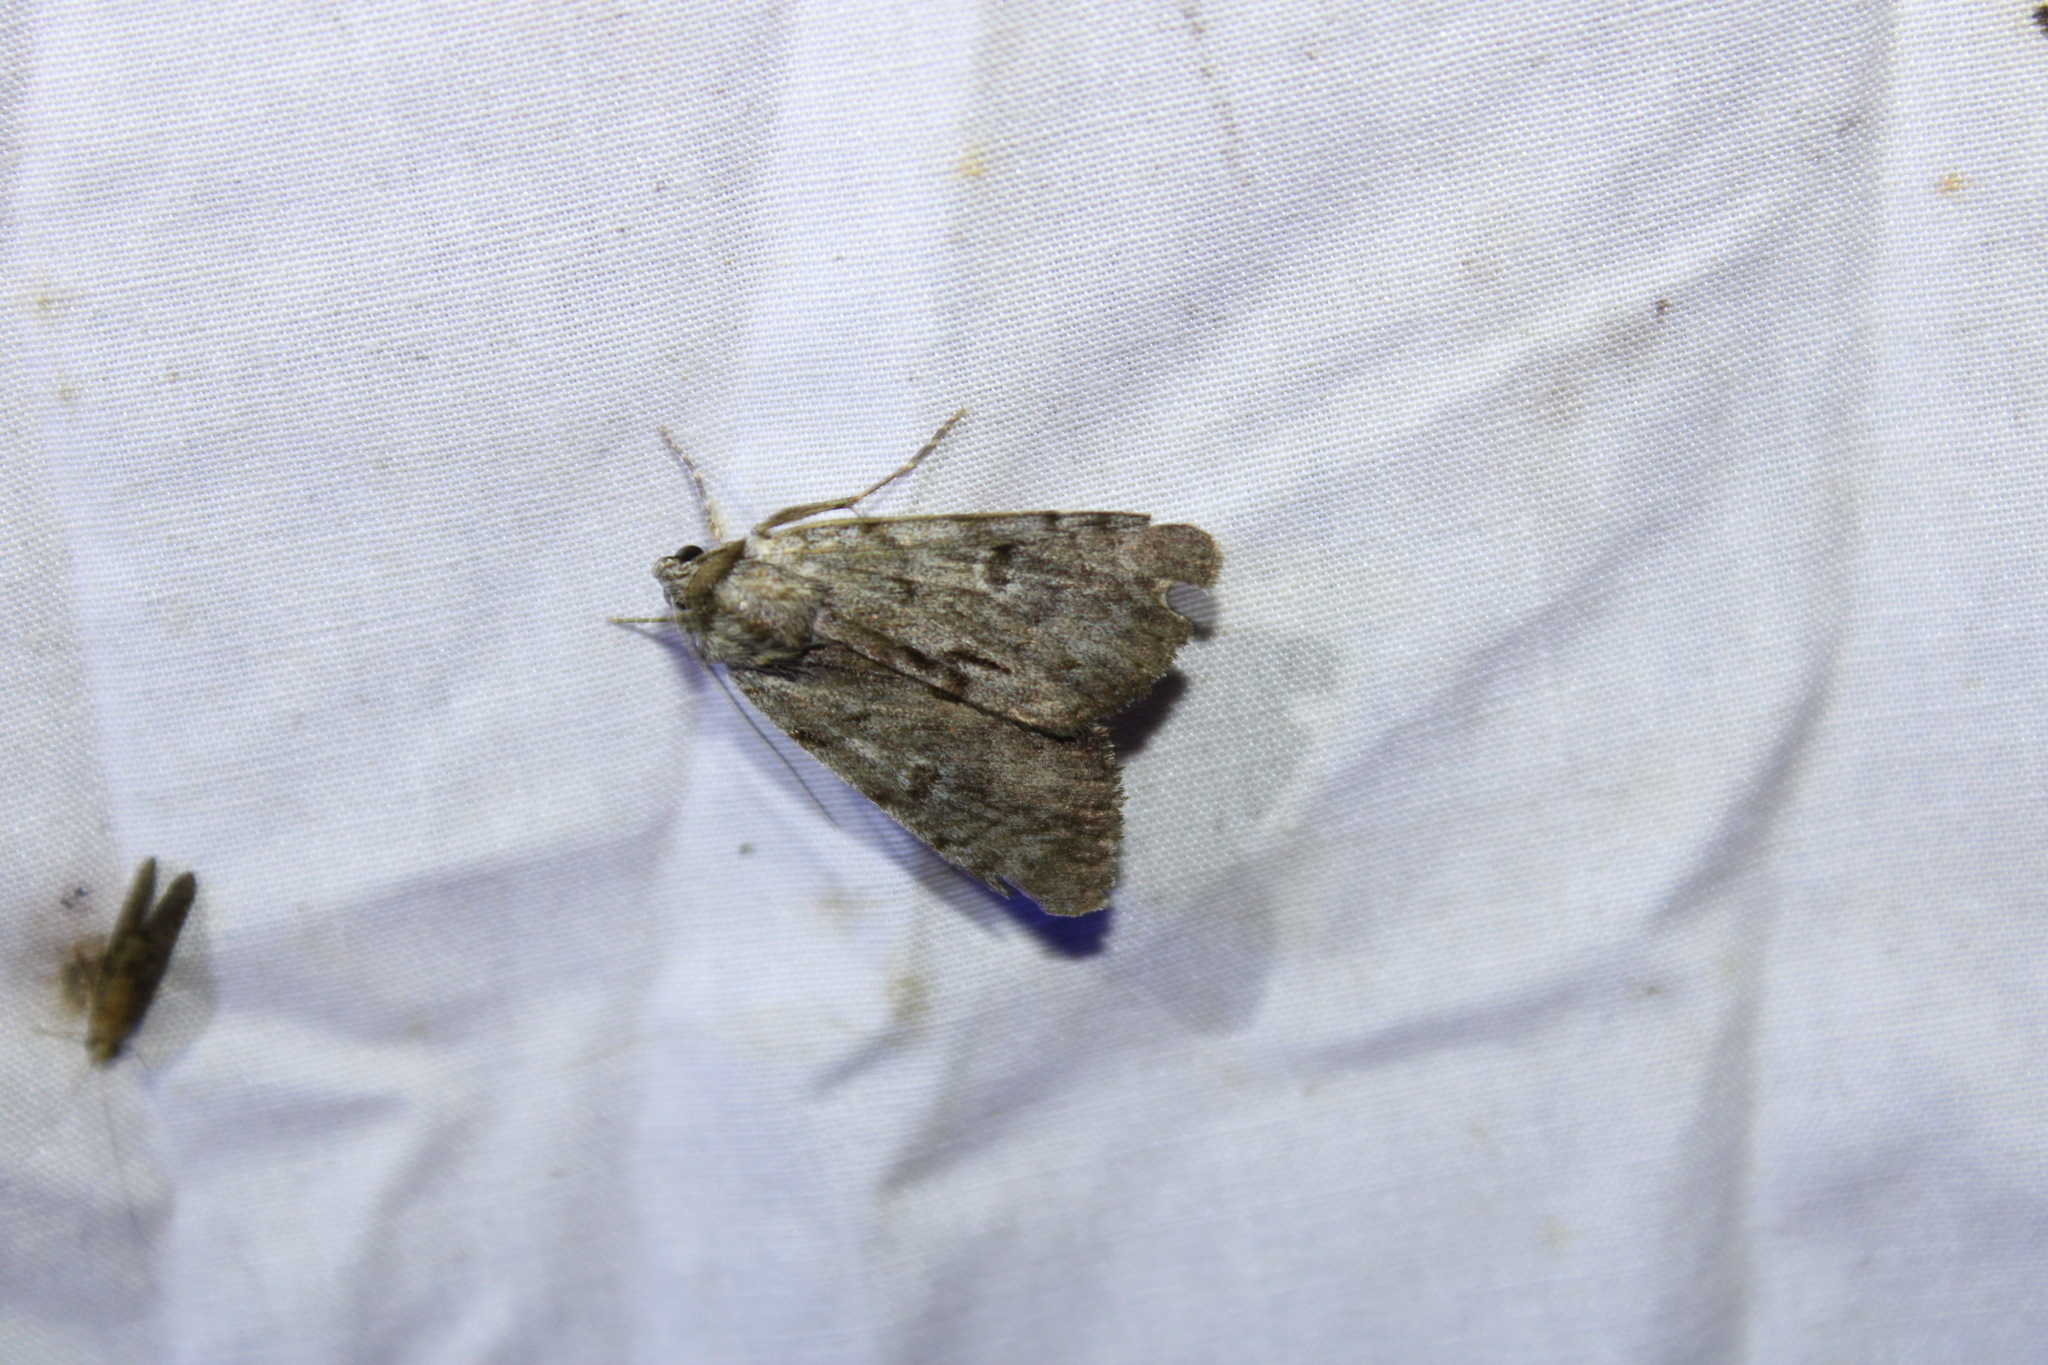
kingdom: Animalia
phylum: Arthropoda
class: Insecta
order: Lepidoptera
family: Erebidae
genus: Catocala
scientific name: Catocala sordida
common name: Sordid underwing
